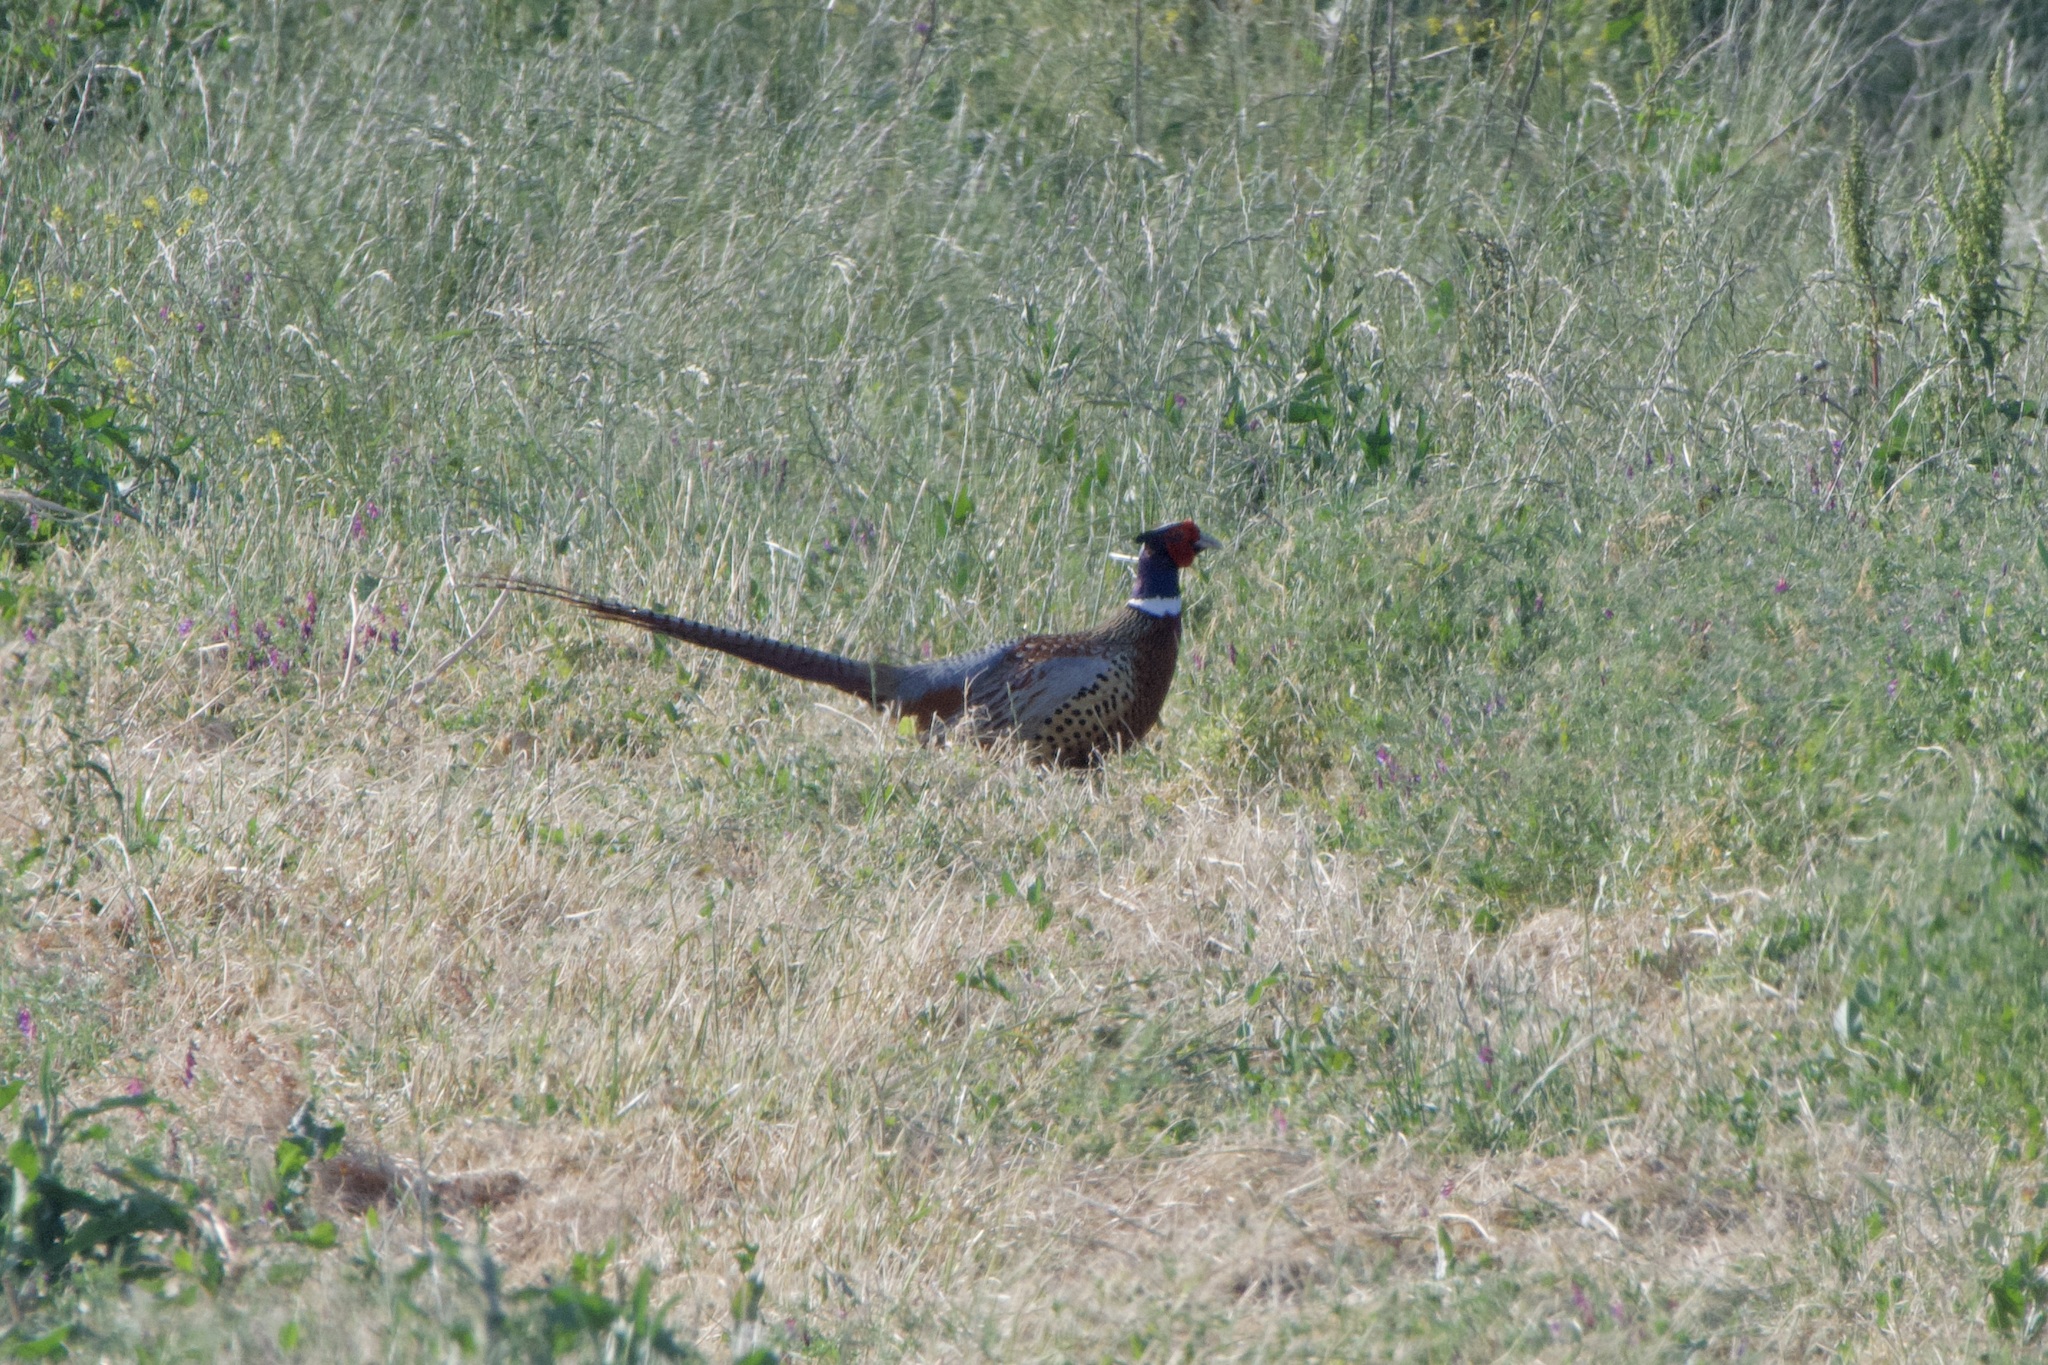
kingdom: Animalia
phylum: Chordata
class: Aves
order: Galliformes
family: Phasianidae
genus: Phasianus
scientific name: Phasianus colchicus
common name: Common pheasant
